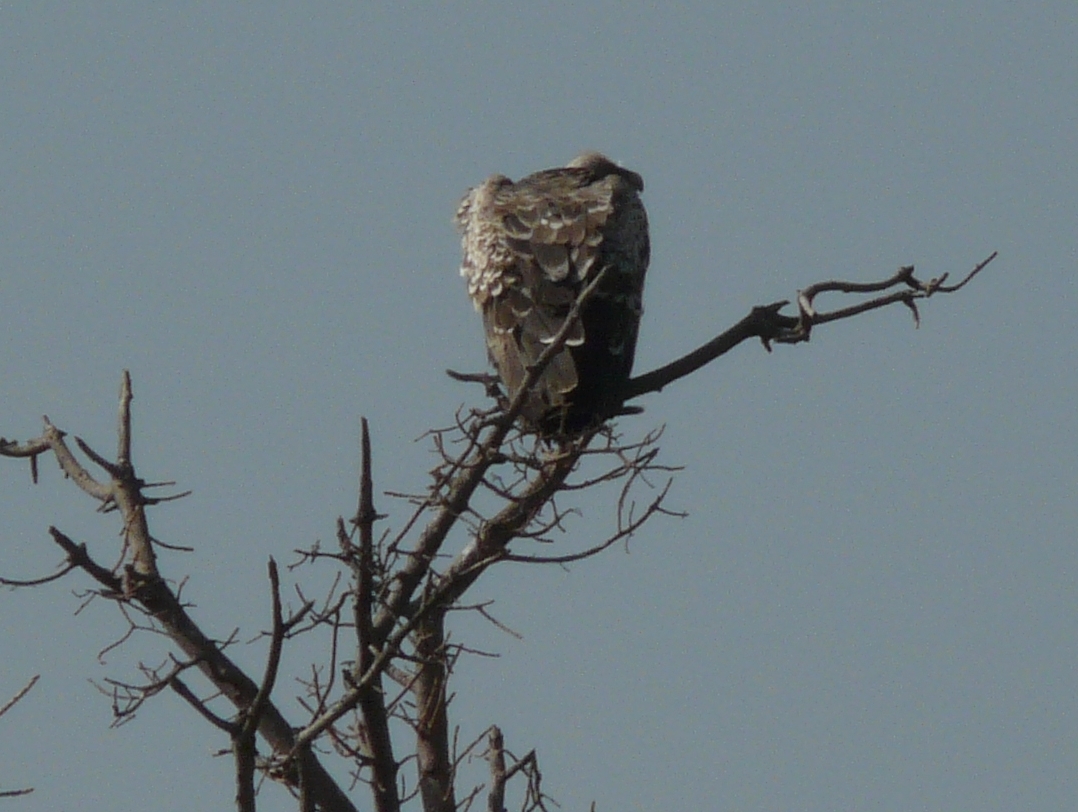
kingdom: Animalia
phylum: Chordata
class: Aves
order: Accipitriformes
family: Accipitridae
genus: Gyps
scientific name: Gyps rueppellii
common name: Rüppell's vulture
